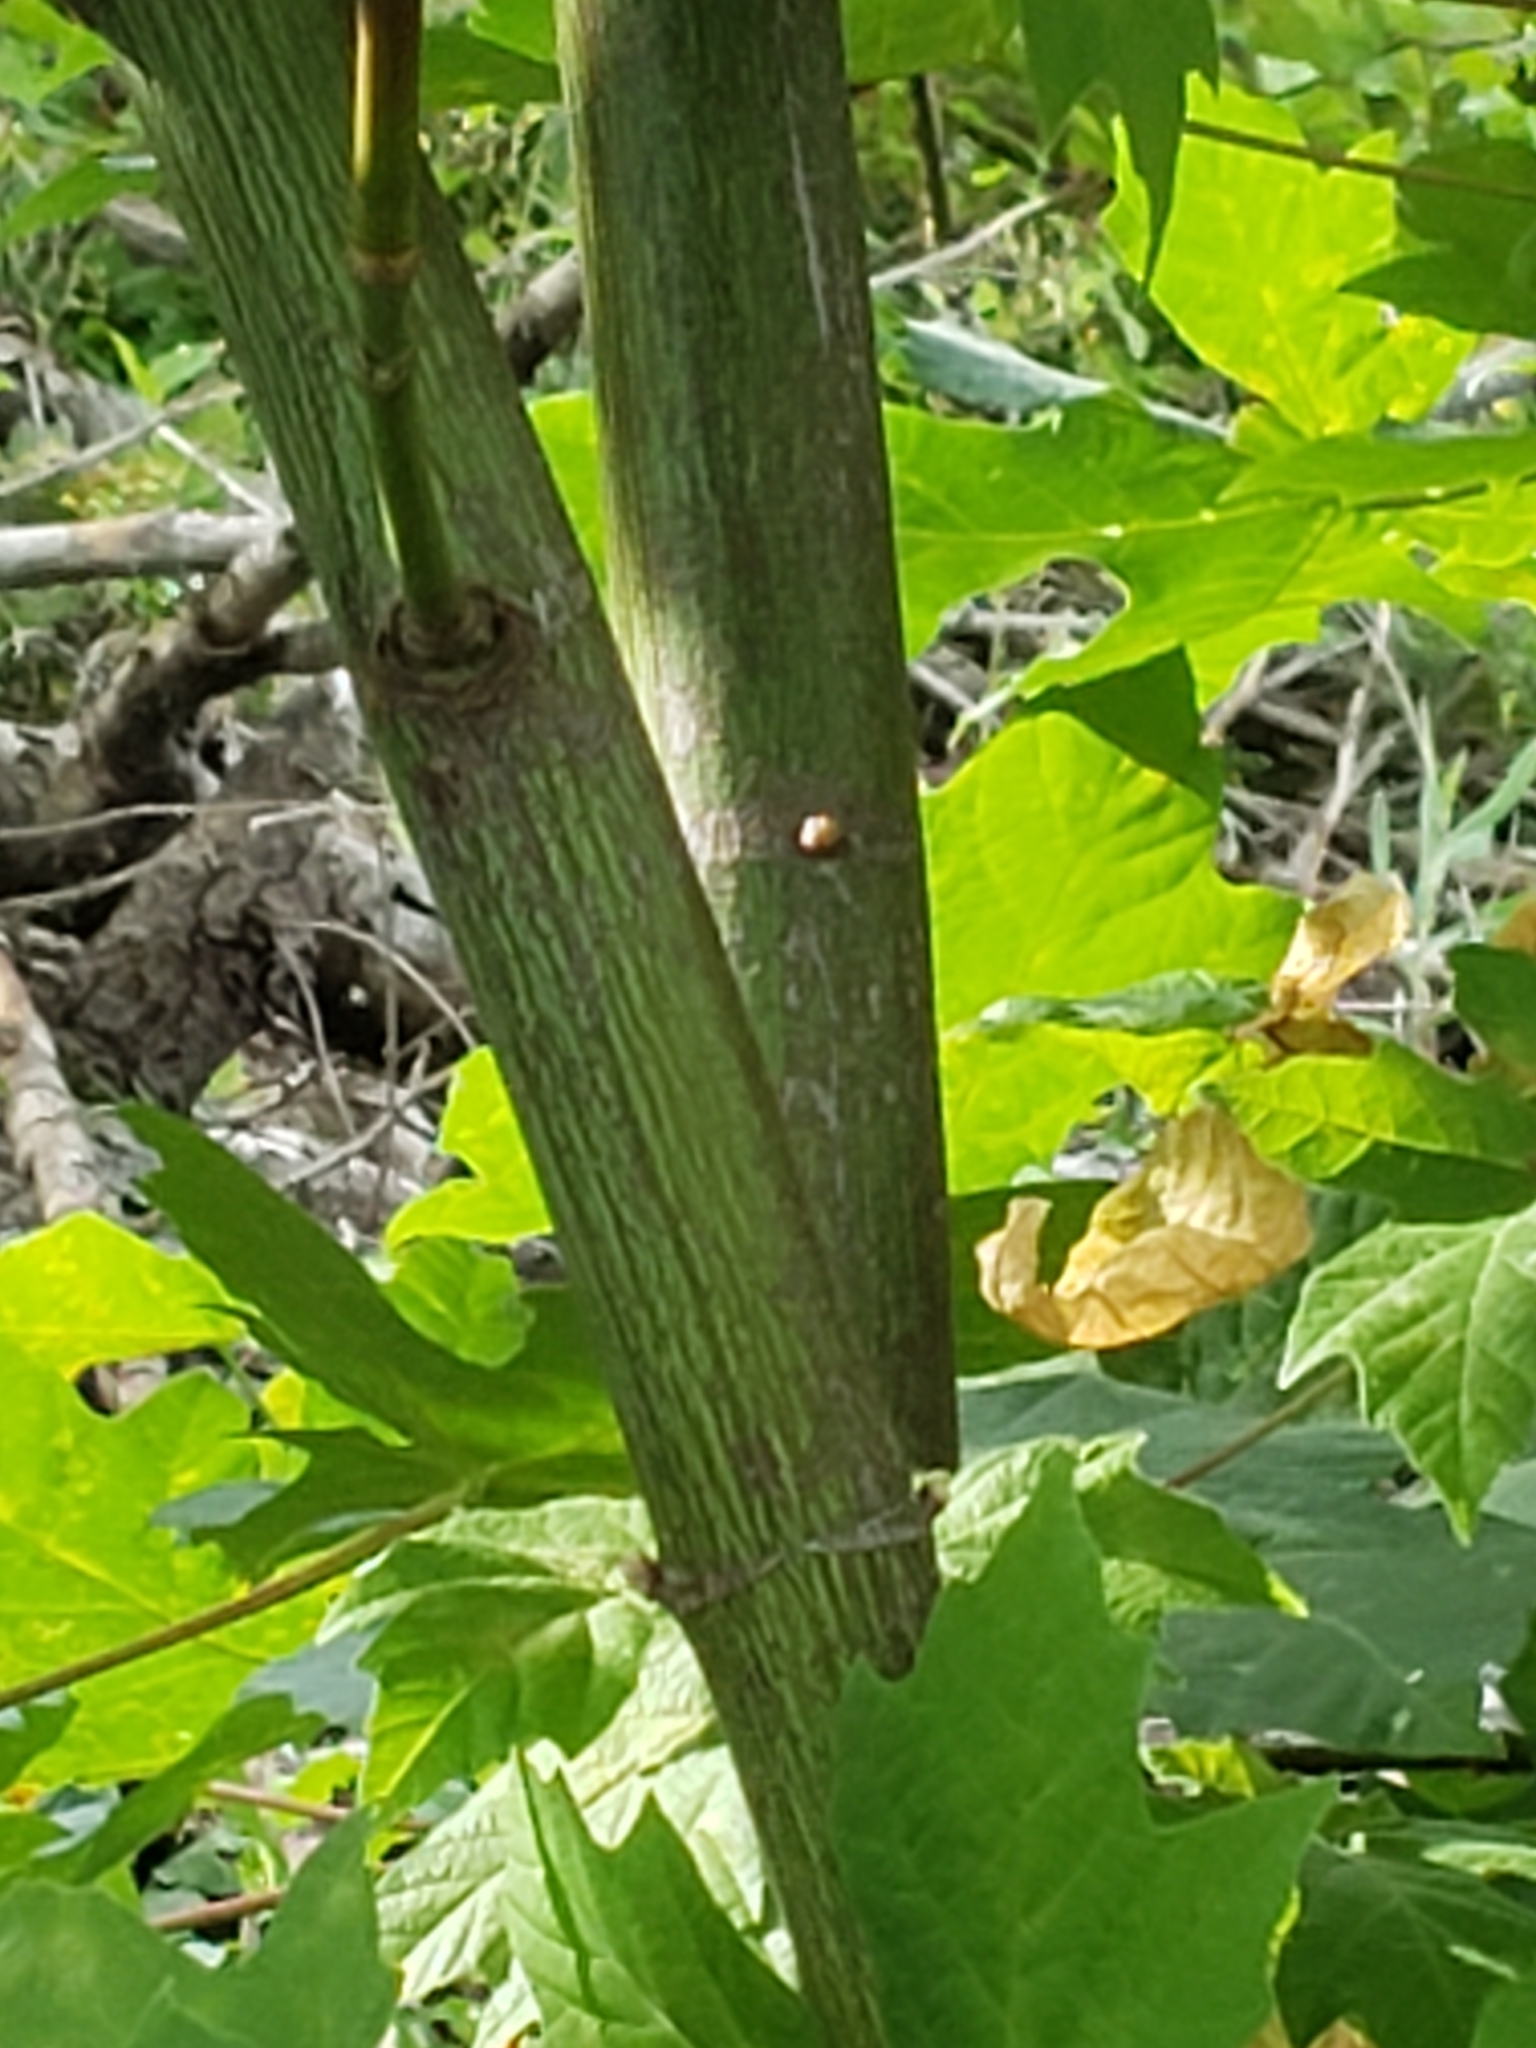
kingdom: Plantae
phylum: Tracheophyta
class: Magnoliopsida
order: Sapindales
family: Sapindaceae
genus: Acer
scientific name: Acer macrophyllum
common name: Oregon maple
